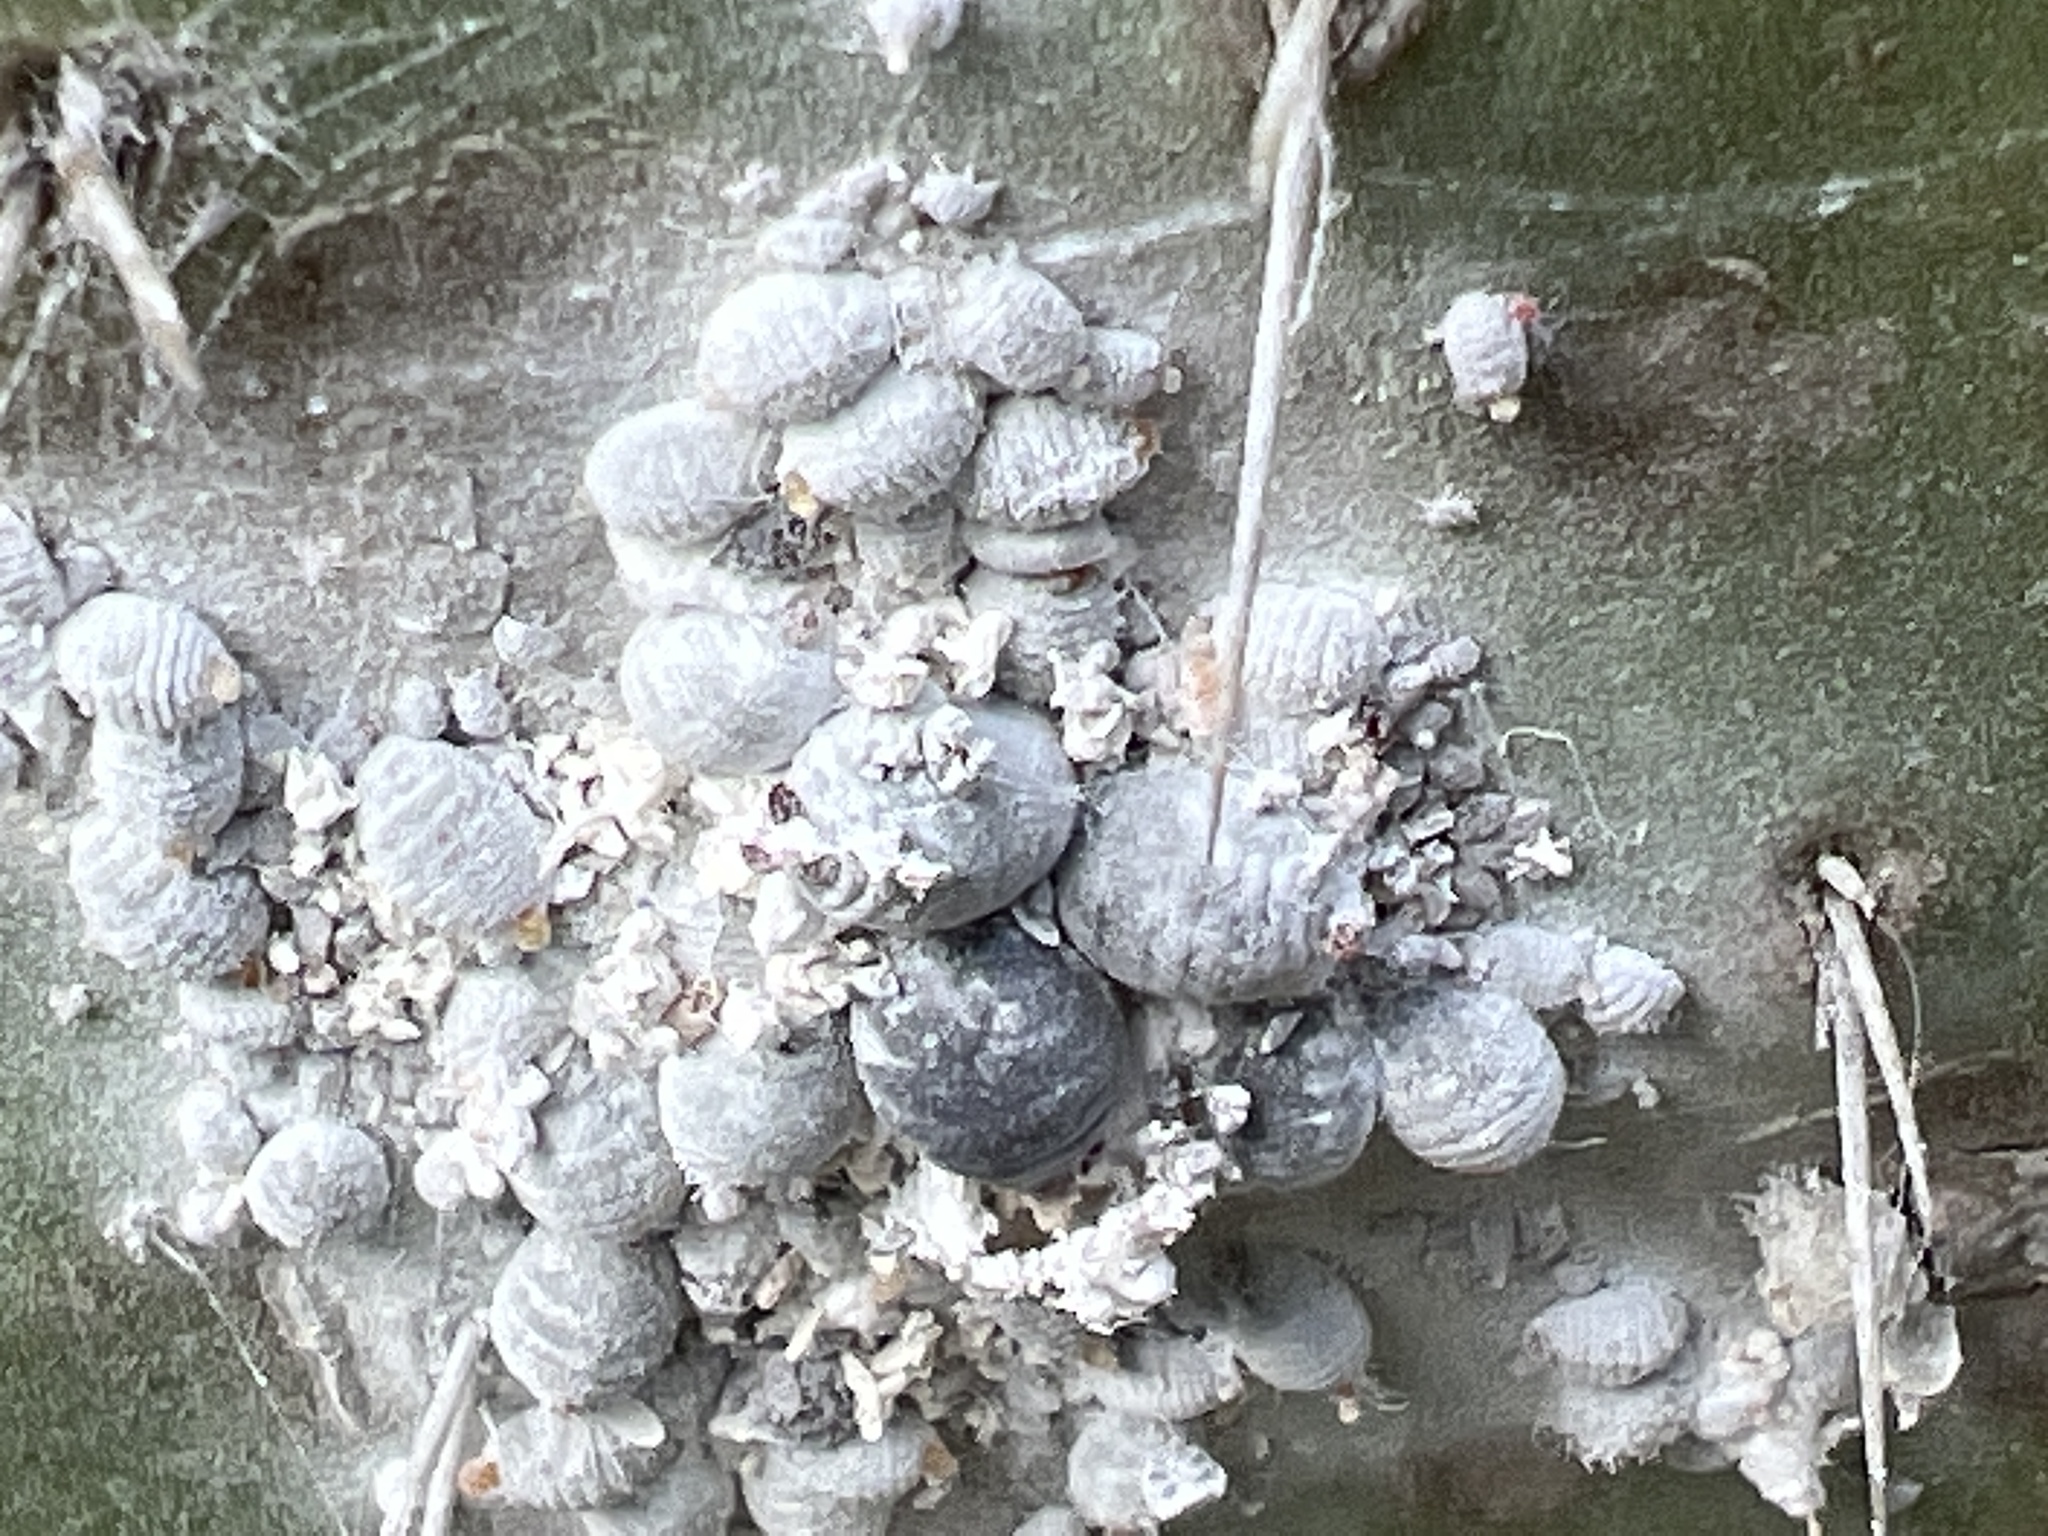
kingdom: Animalia
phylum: Arthropoda
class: Insecta
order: Hemiptera
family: Dactylopiidae
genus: Dactylopius
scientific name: Dactylopius coccus
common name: Cochineal
